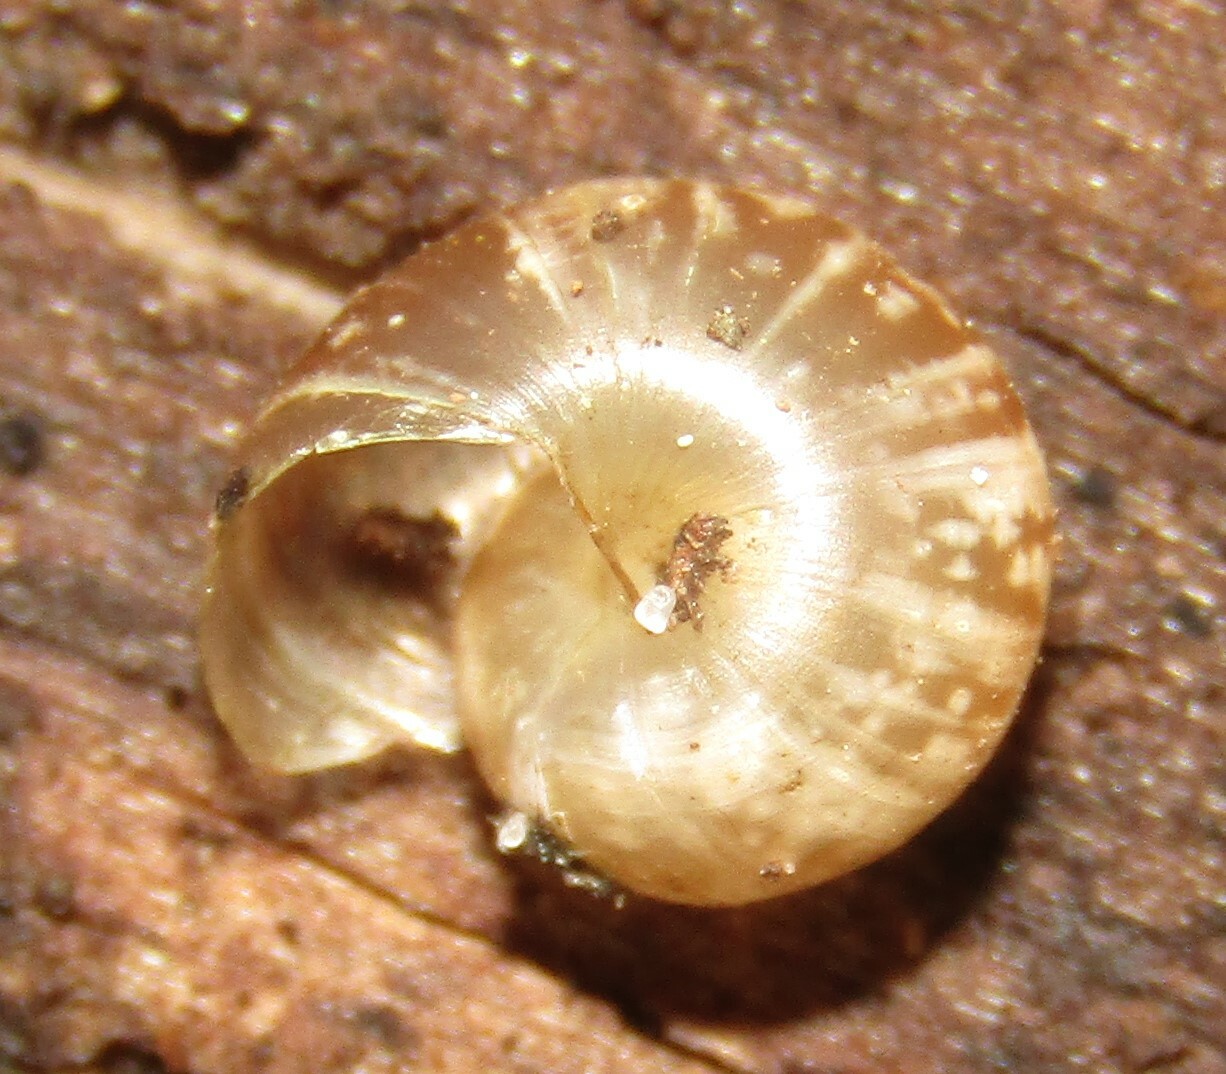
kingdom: Animalia
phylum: Mollusca
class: Gastropoda
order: Stylommatophora
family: Helicidae
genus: Arianta
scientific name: Arianta arbustorum
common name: Copse snail
